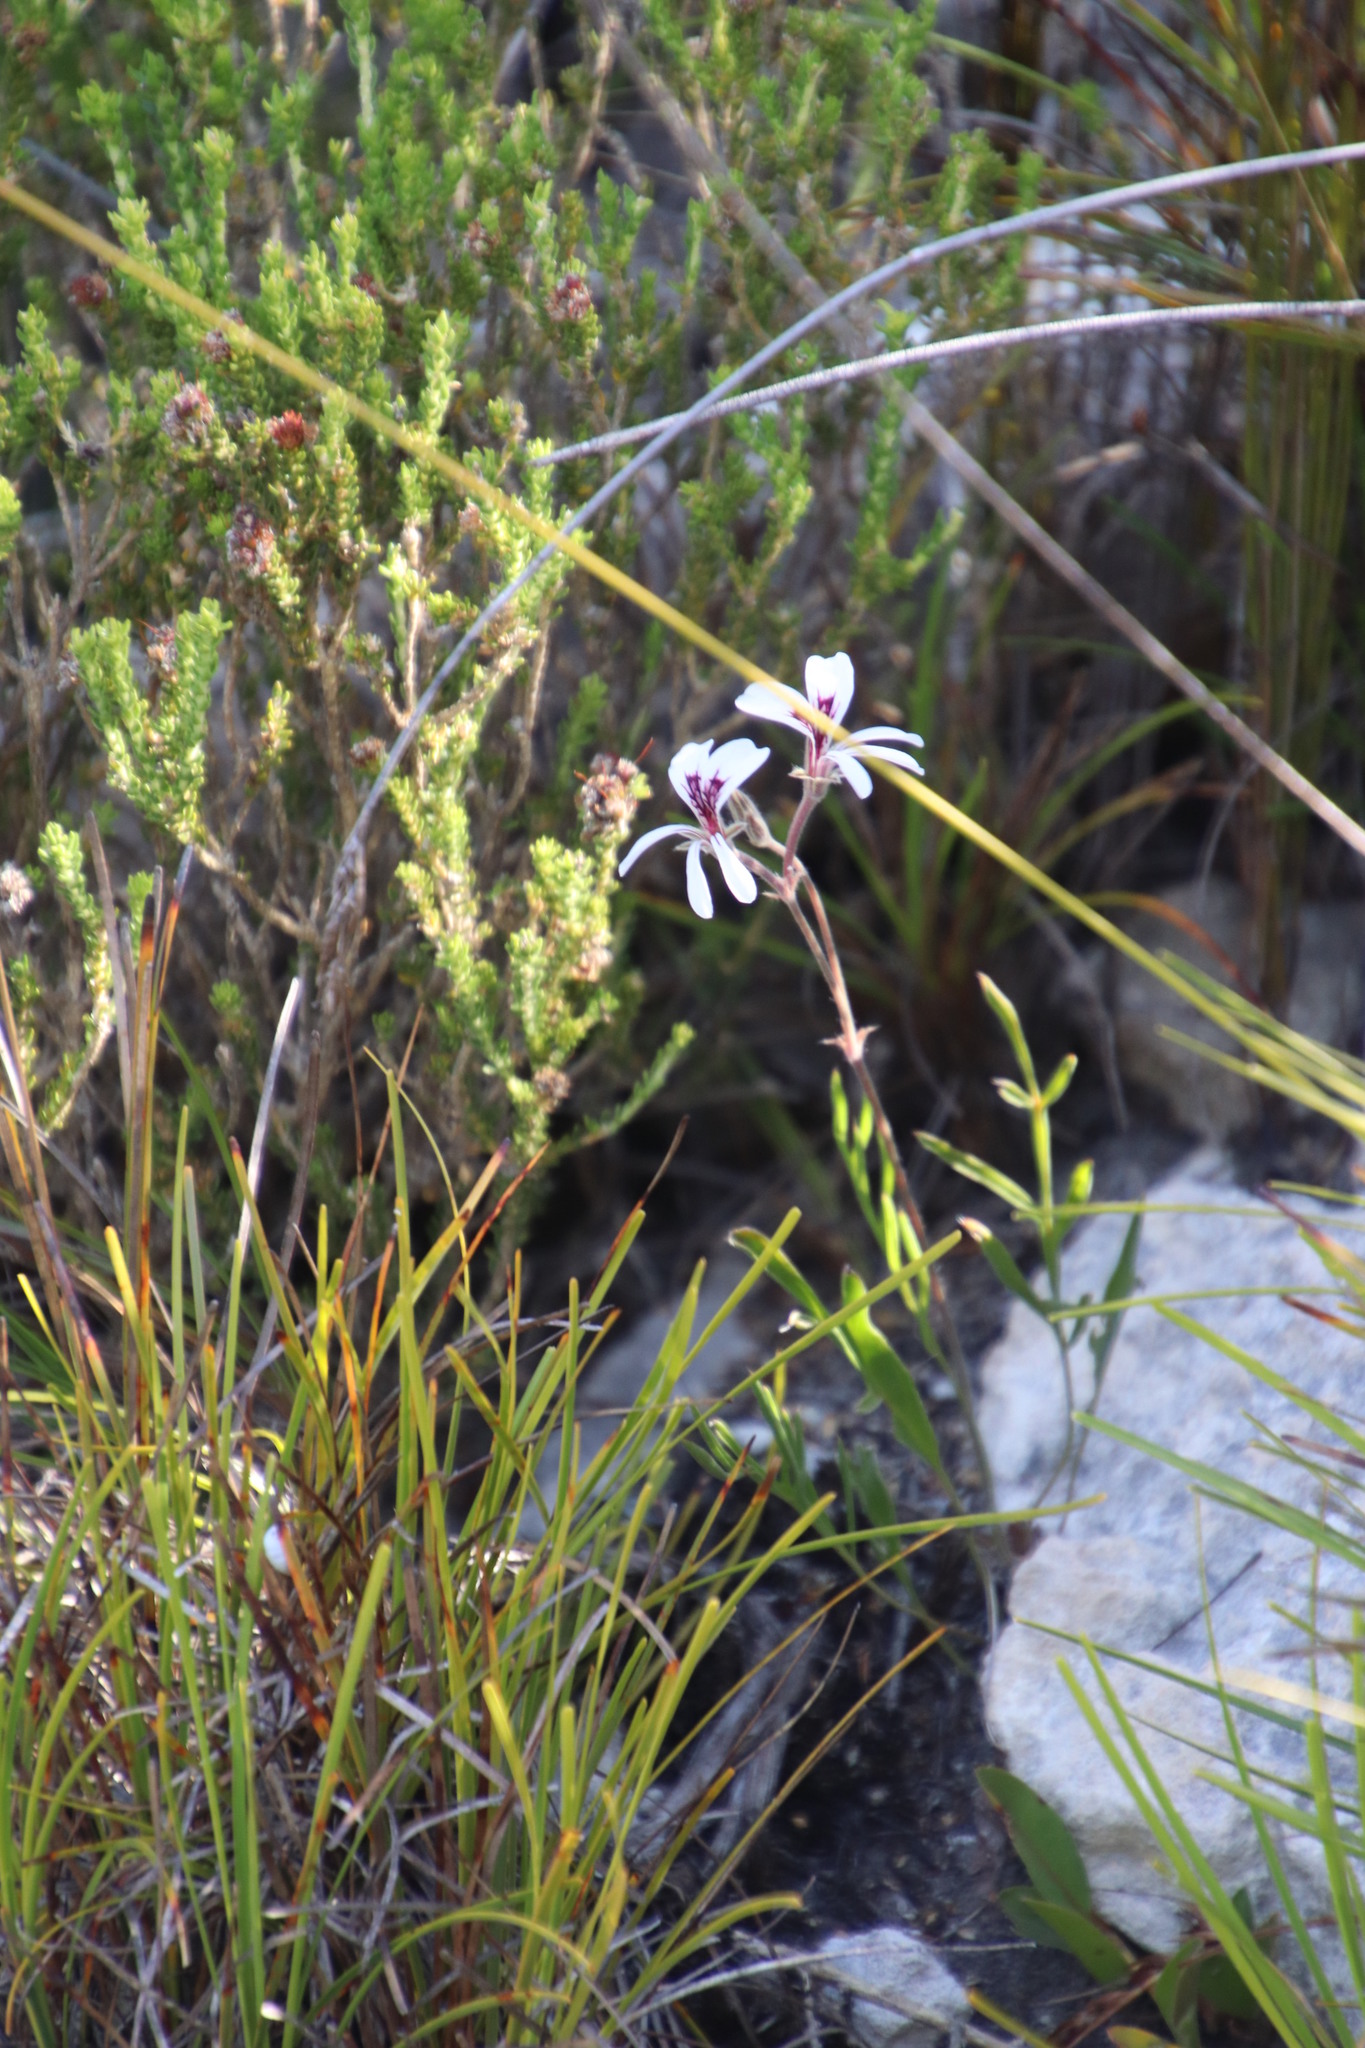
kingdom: Plantae
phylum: Tracheophyta
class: Magnoliopsida
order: Geraniales
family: Geraniaceae
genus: Pelargonium
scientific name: Pelargonium proliferum
